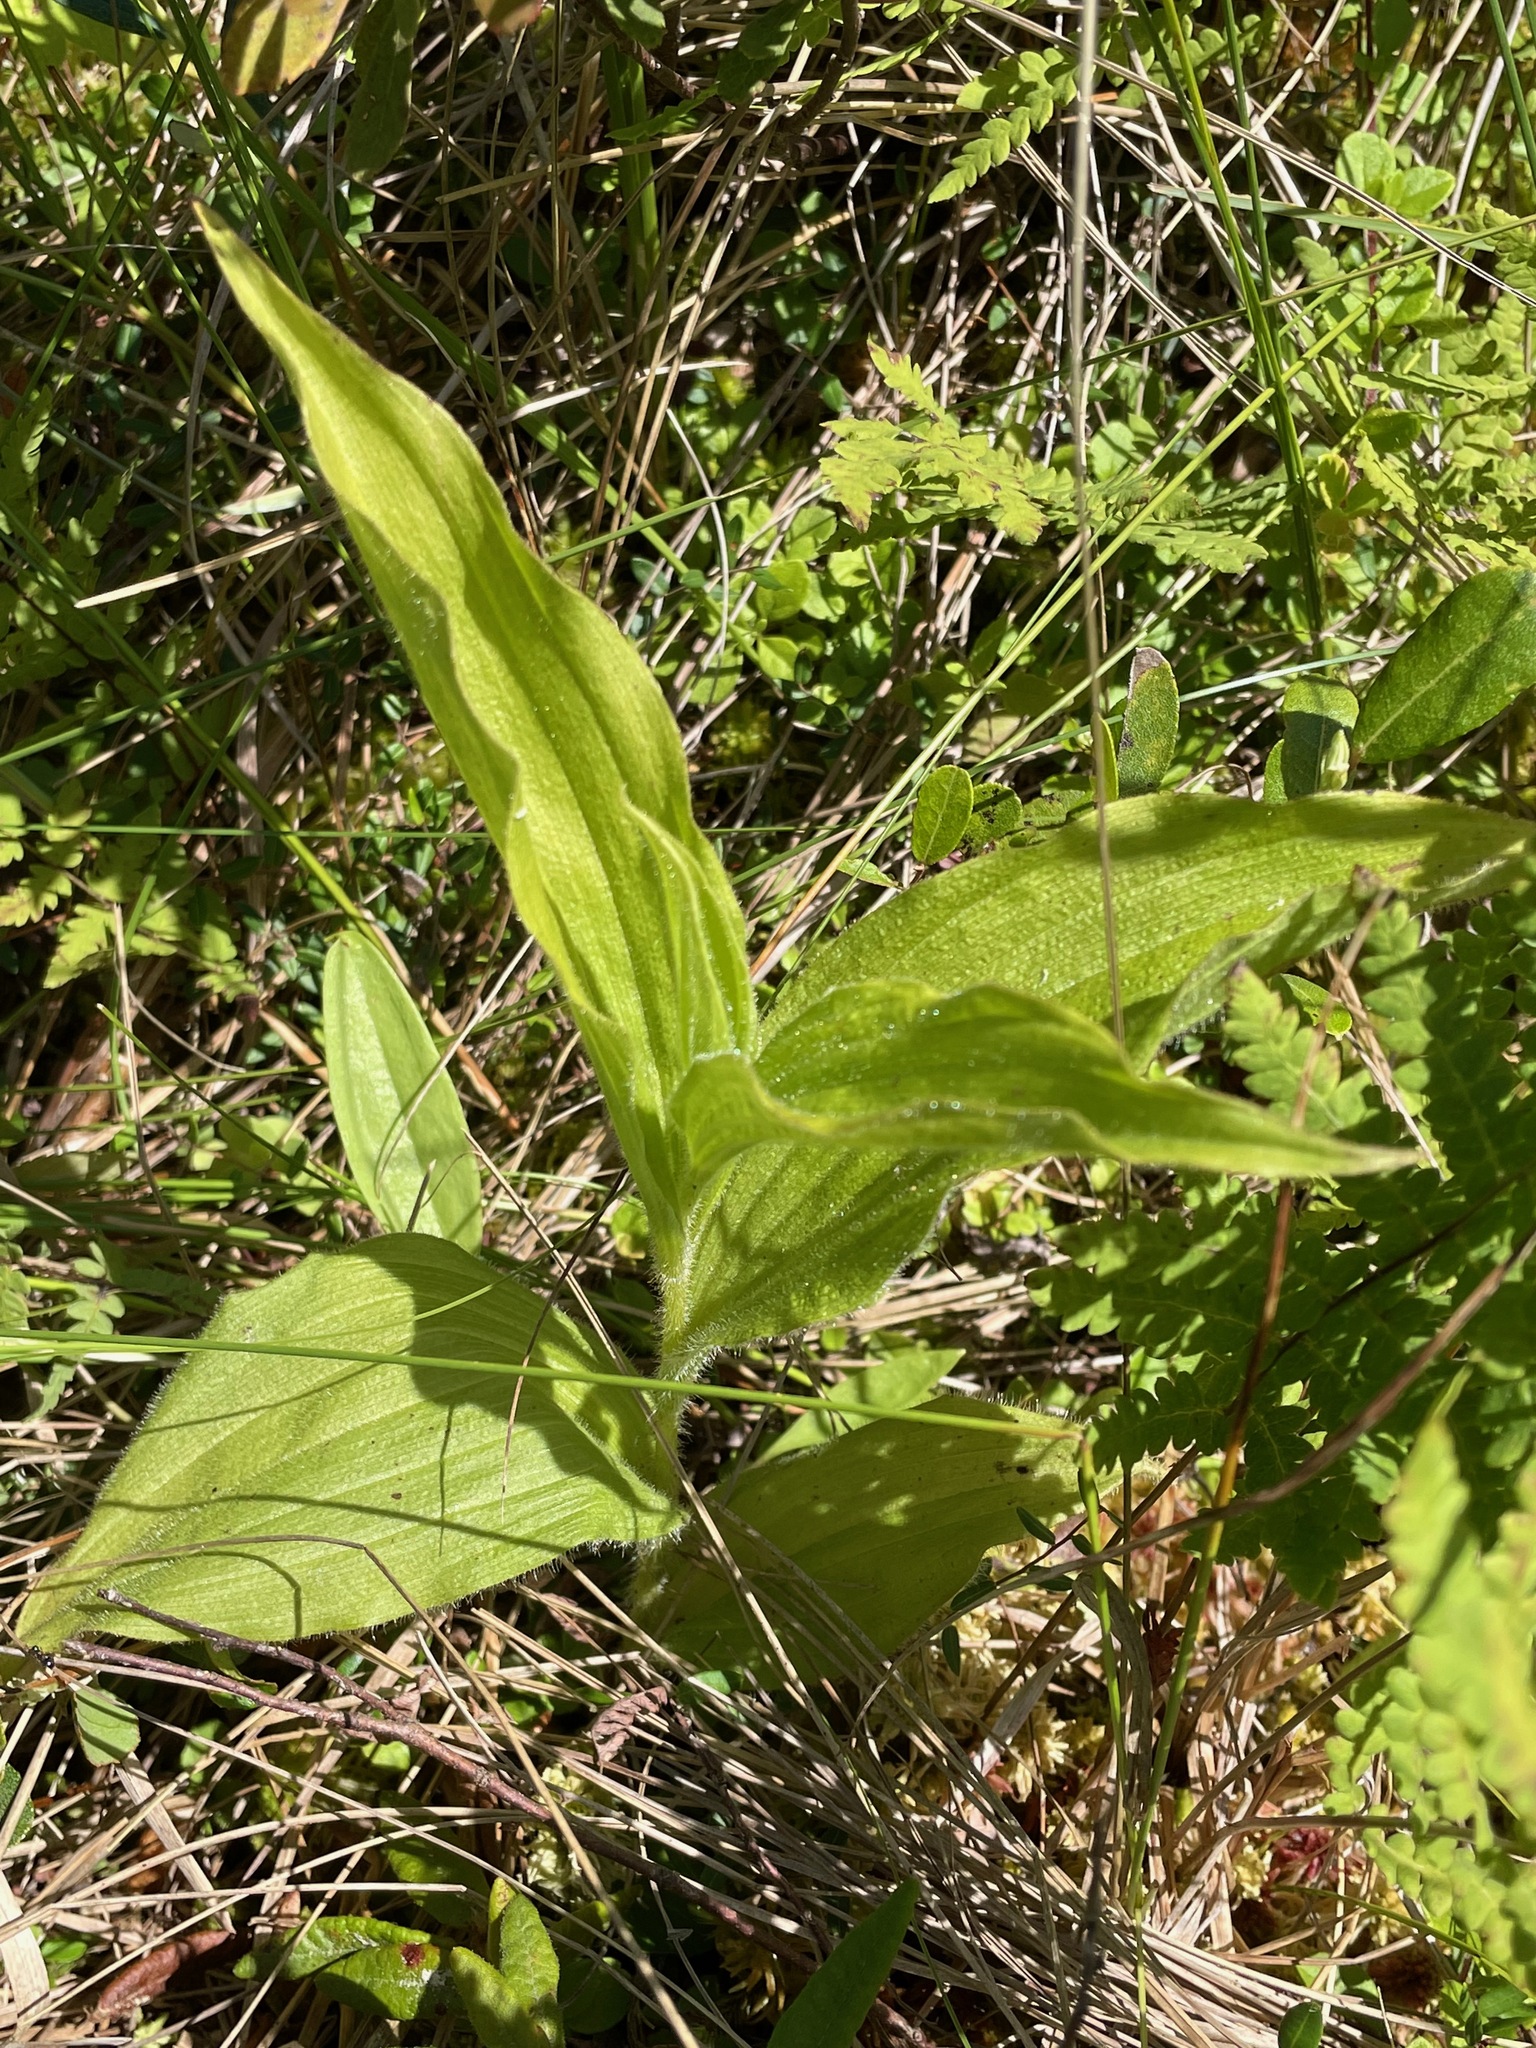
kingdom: Plantae
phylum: Tracheophyta
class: Liliopsida
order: Asparagales
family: Orchidaceae
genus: Cypripedium
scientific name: Cypripedium reginae
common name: Queen lady's-slipper
